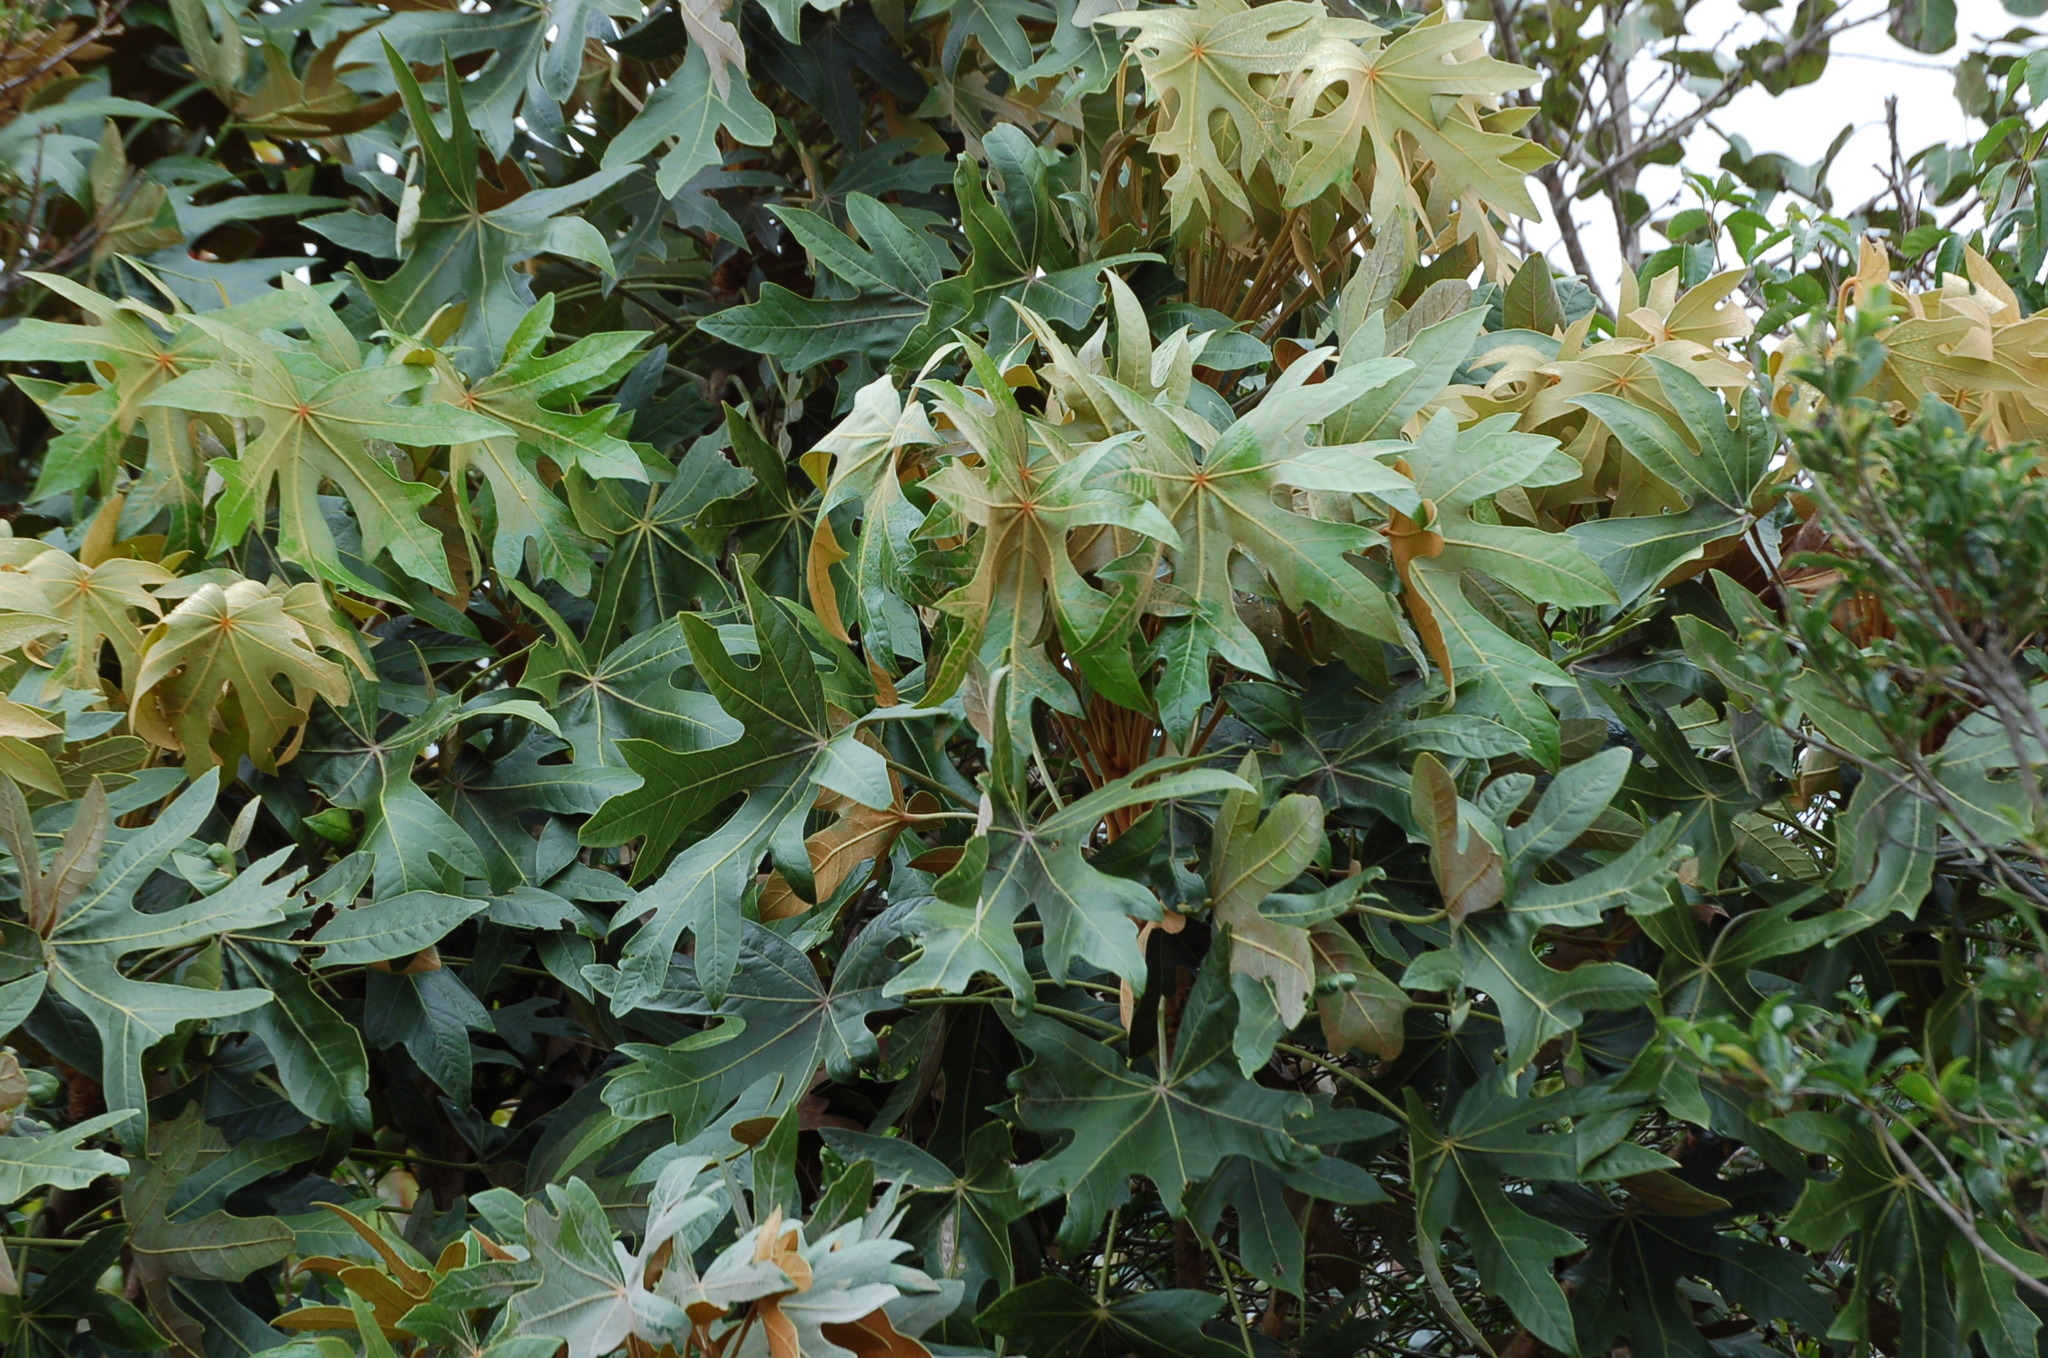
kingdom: Plantae
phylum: Tracheophyta
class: Magnoliopsida
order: Apiales
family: Araliaceae
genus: Oreopanax
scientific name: Oreopanax geminatus
